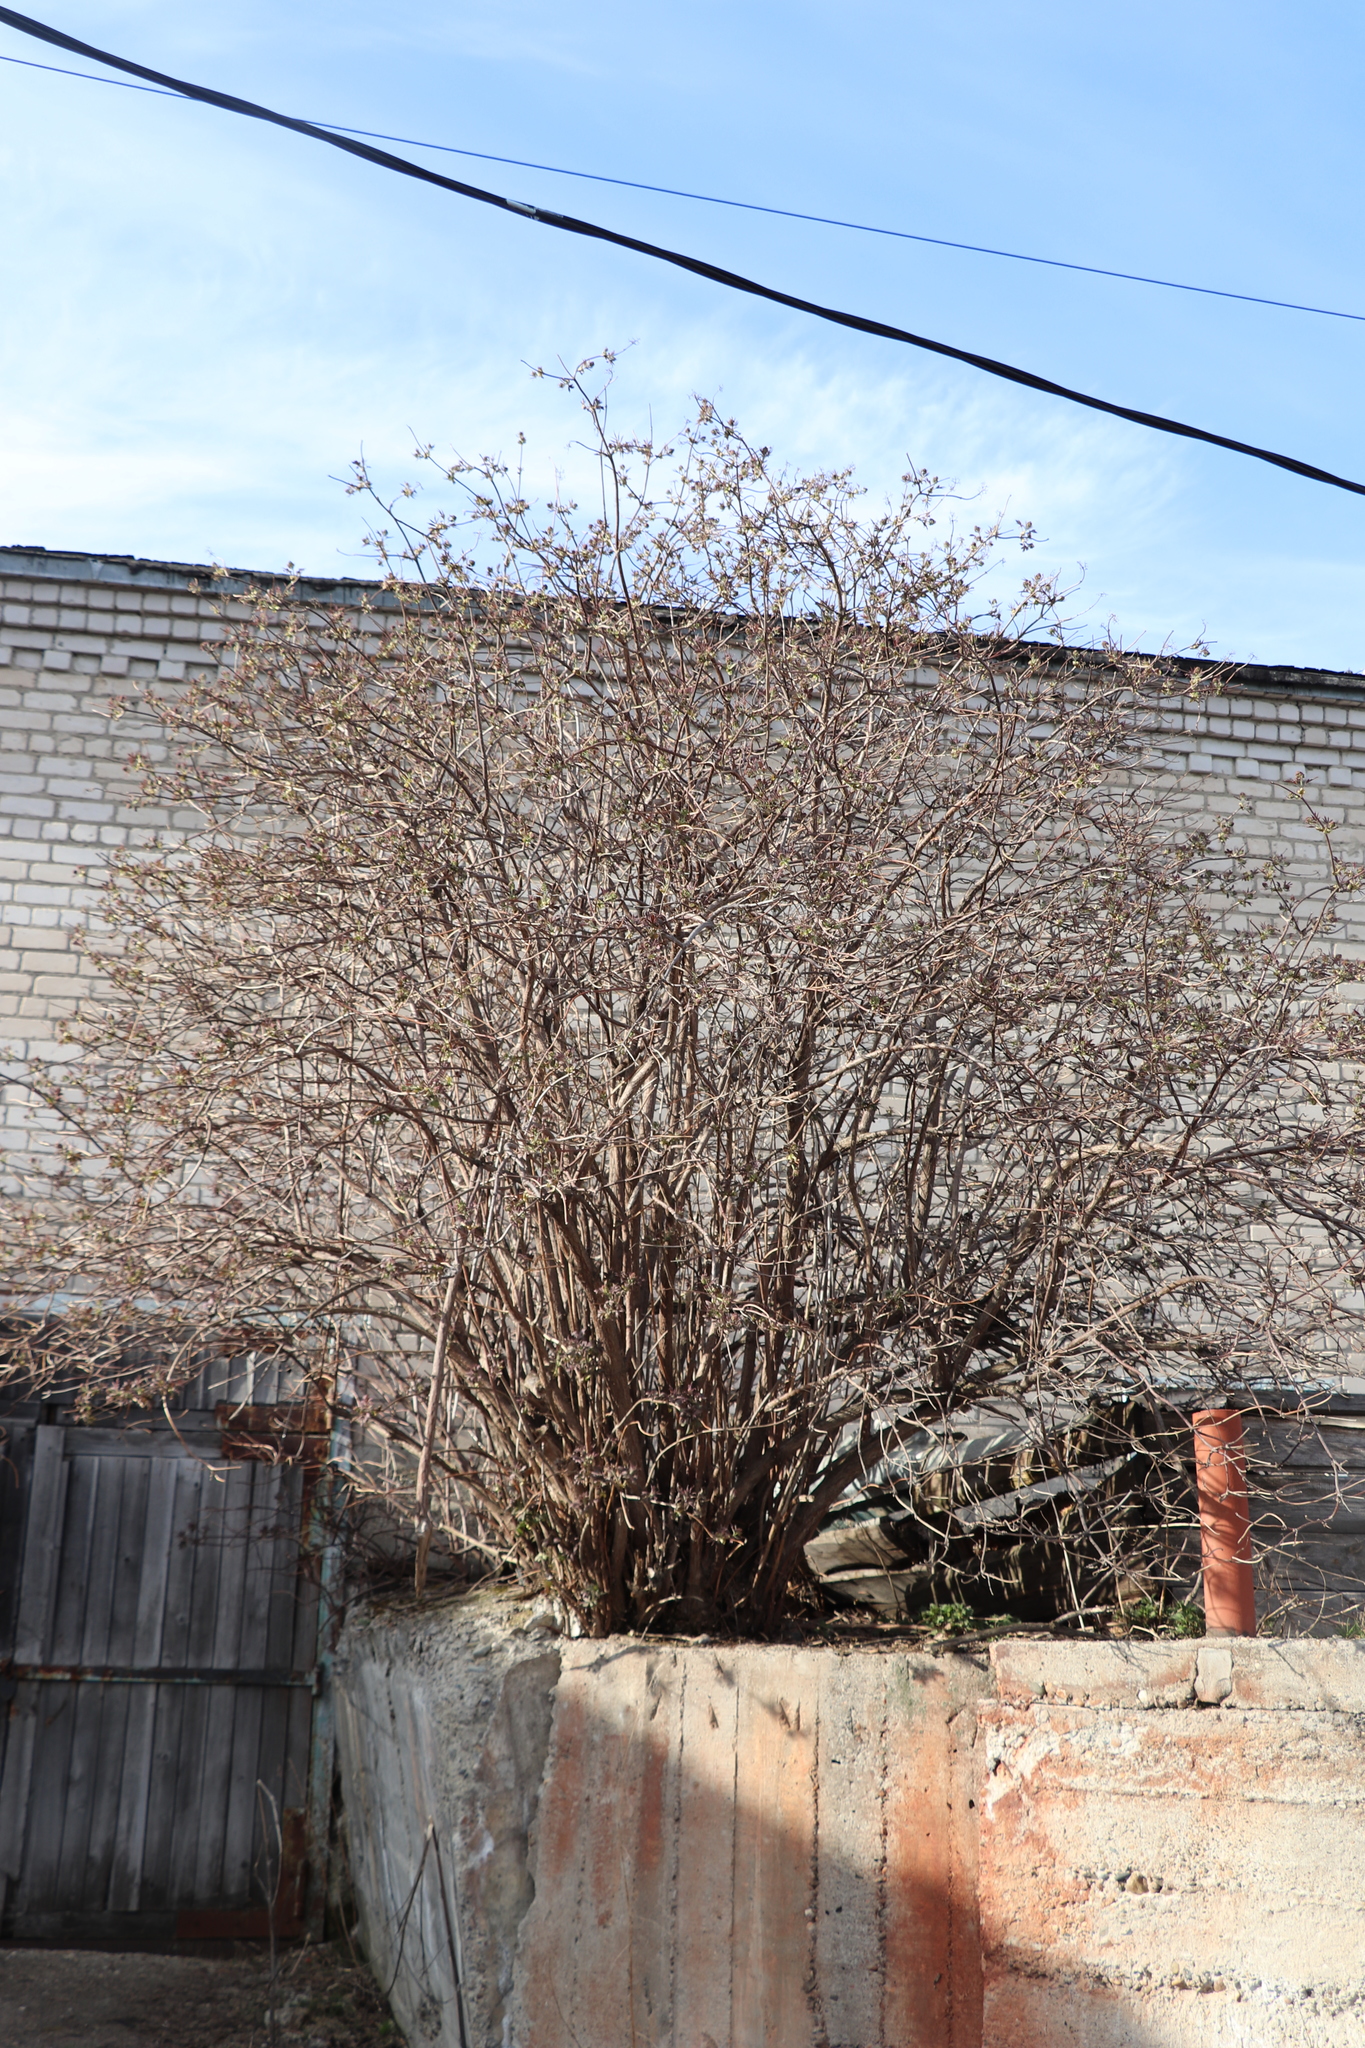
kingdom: Plantae
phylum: Tracheophyta
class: Magnoliopsida
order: Dipsacales
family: Viburnaceae
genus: Sambucus
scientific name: Sambucus sibirica
